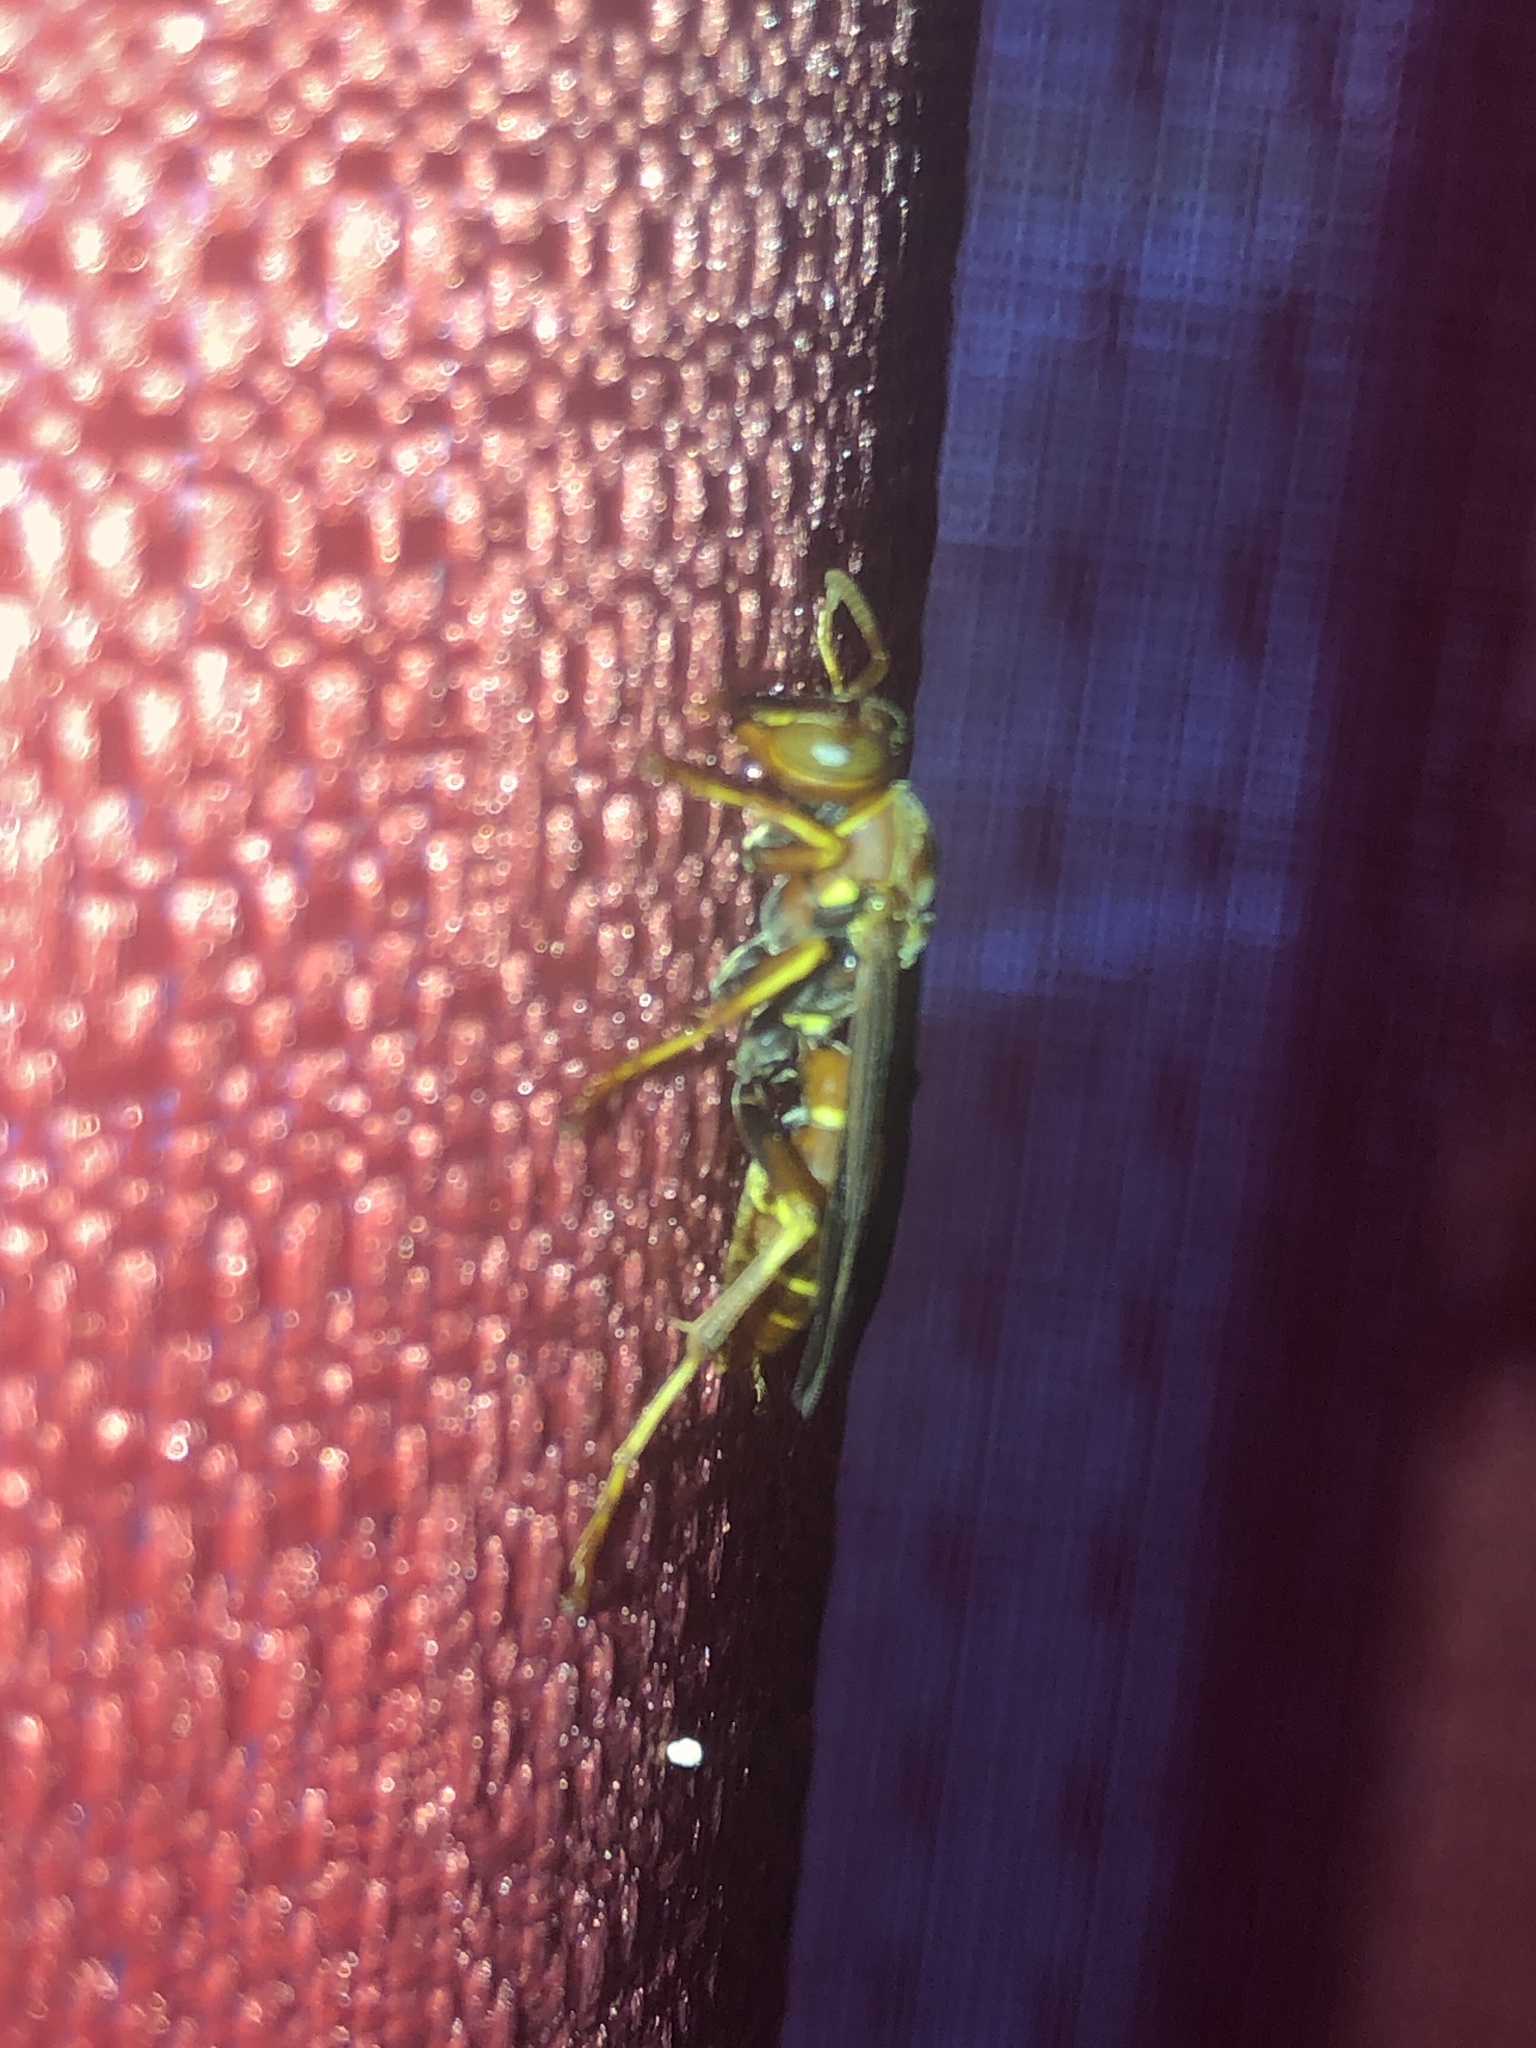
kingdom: Animalia
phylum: Arthropoda
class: Insecta
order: Hymenoptera
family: Eumenidae
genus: Polistes
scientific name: Polistes bellicosus
